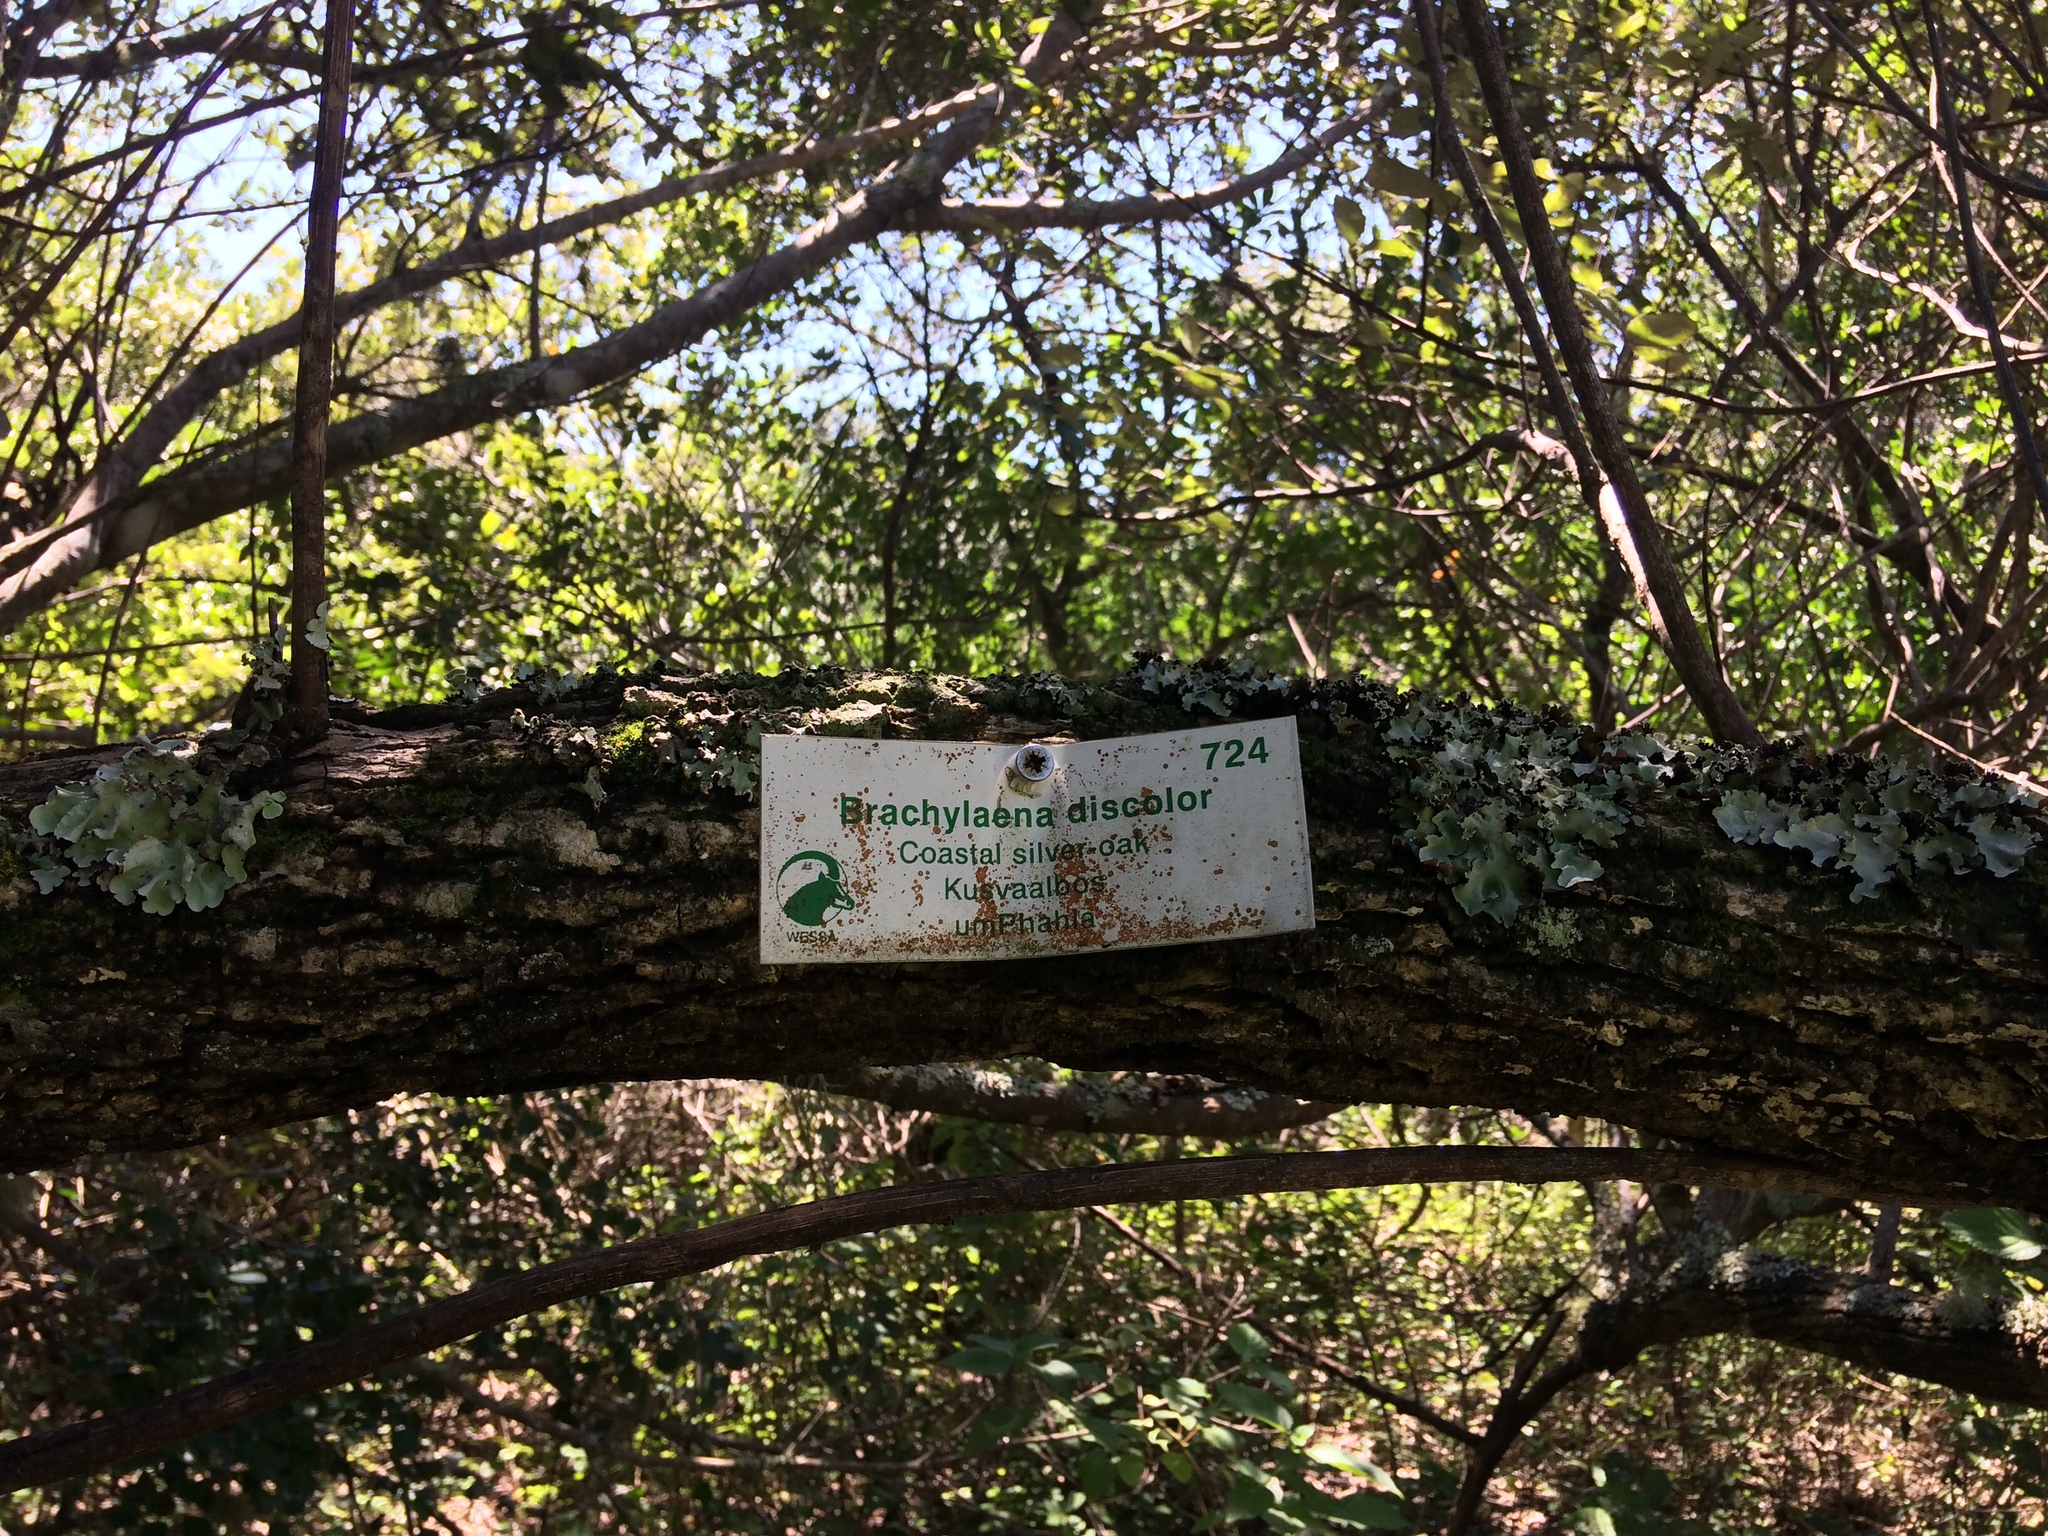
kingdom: Plantae
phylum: Tracheophyta
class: Magnoliopsida
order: Asterales
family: Asteraceae
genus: Brachylaena
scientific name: Brachylaena discolor
